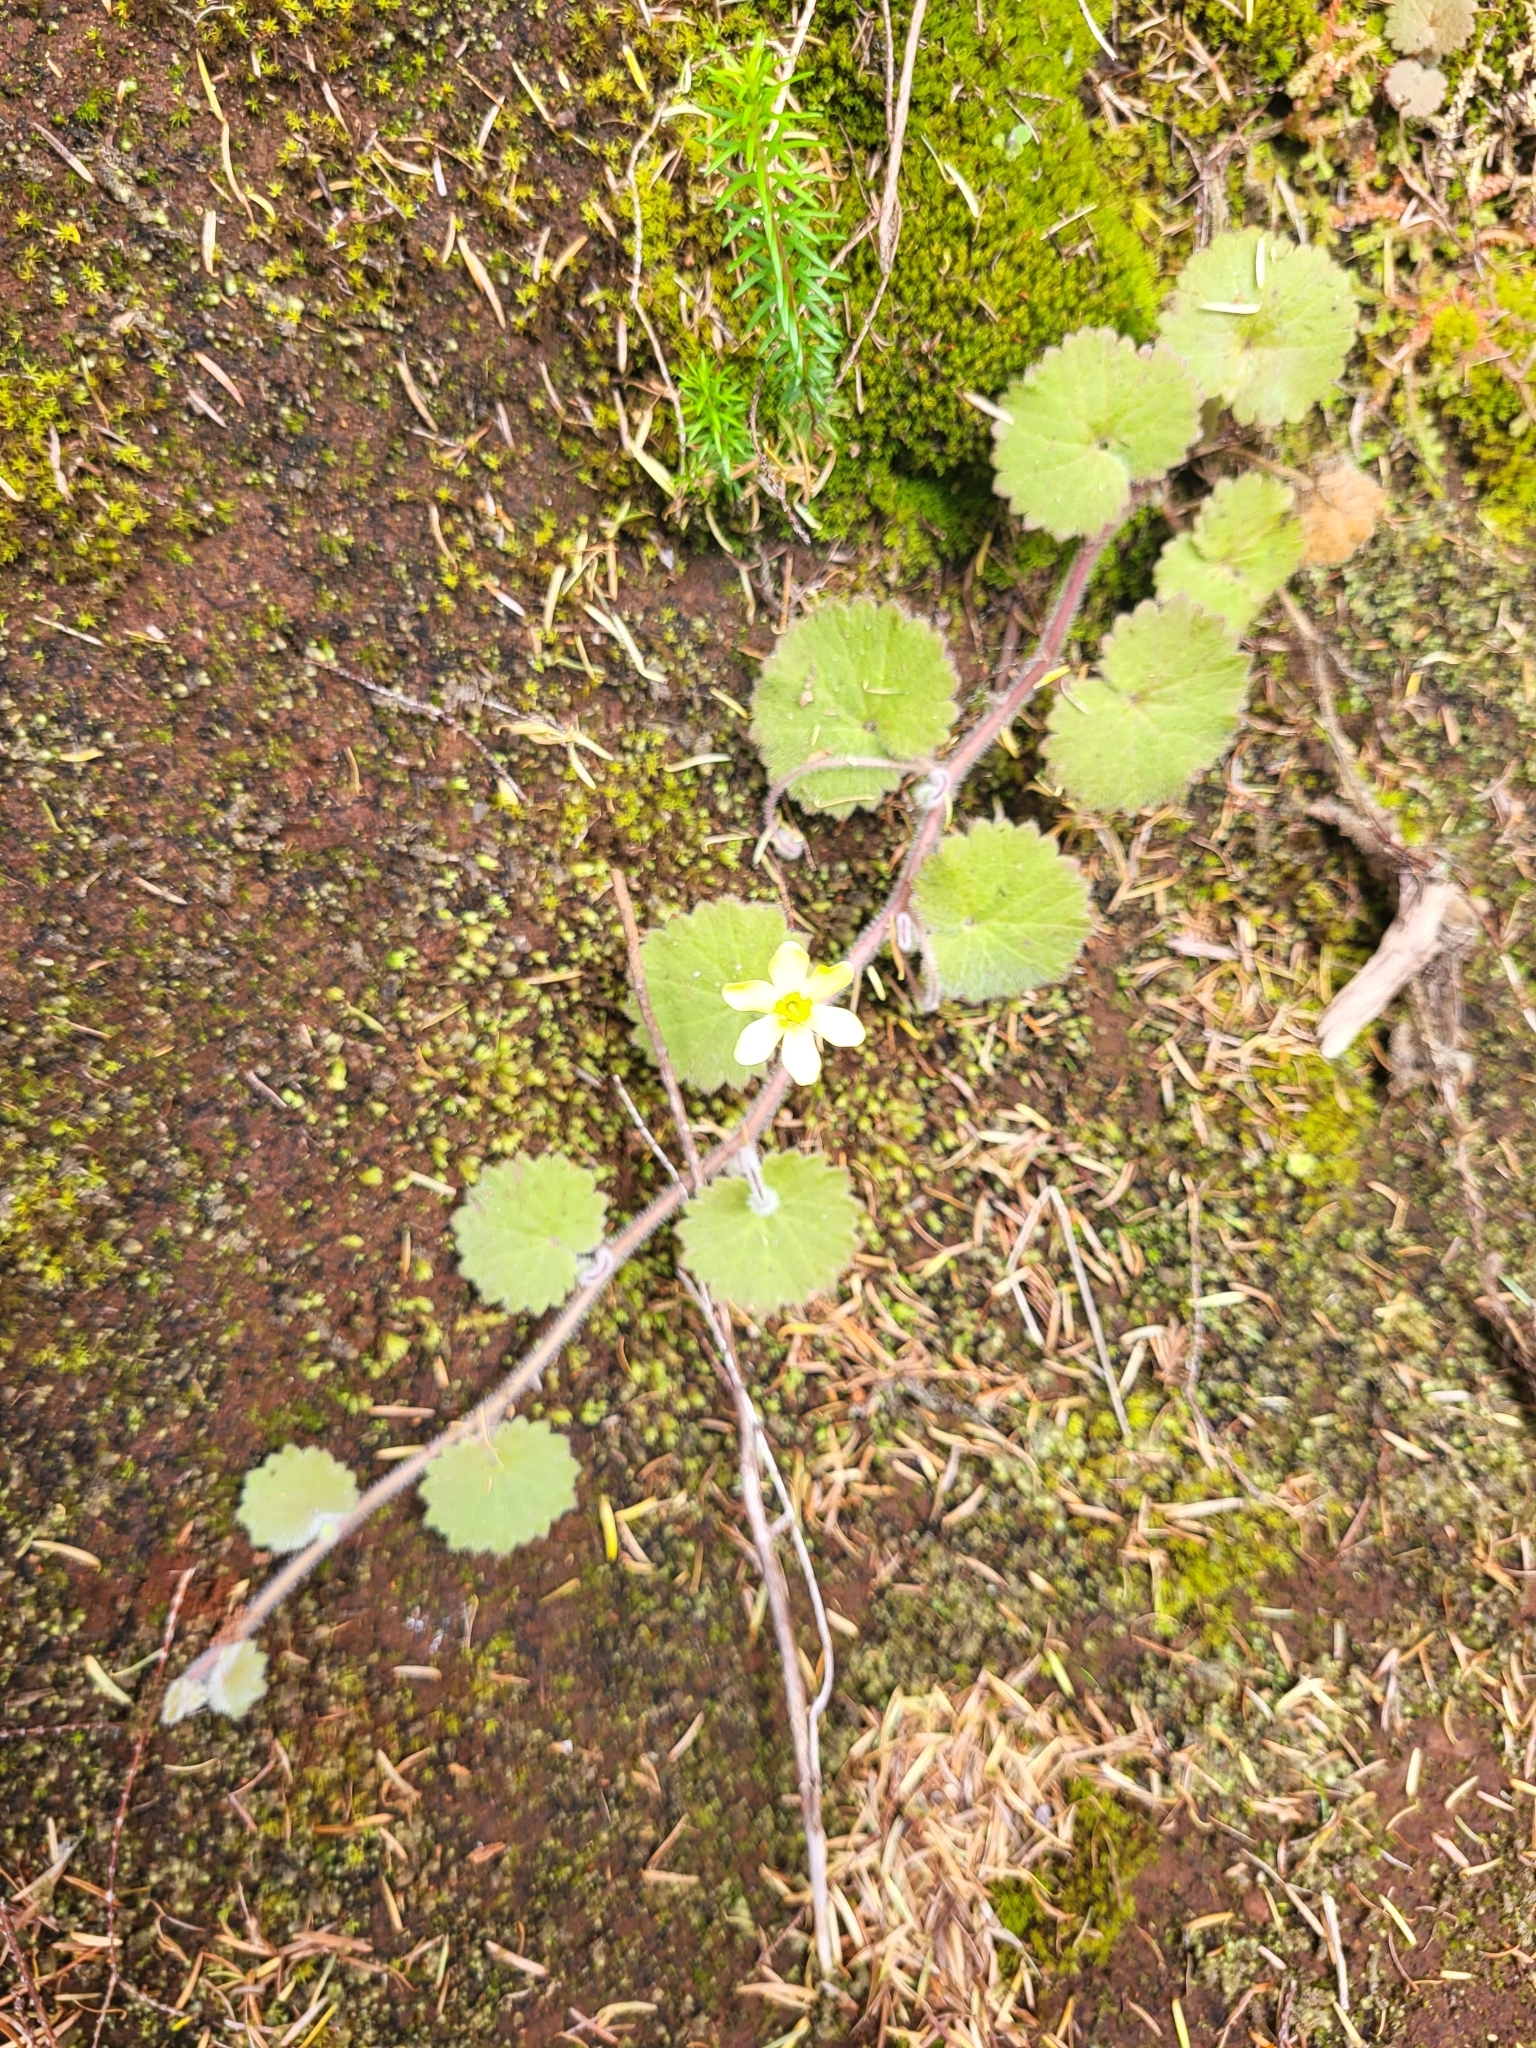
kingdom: Plantae
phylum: Tracheophyta
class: Magnoliopsida
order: Lamiales
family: Plantaginaceae
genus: Sibthorpia
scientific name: Sibthorpia peregrina
